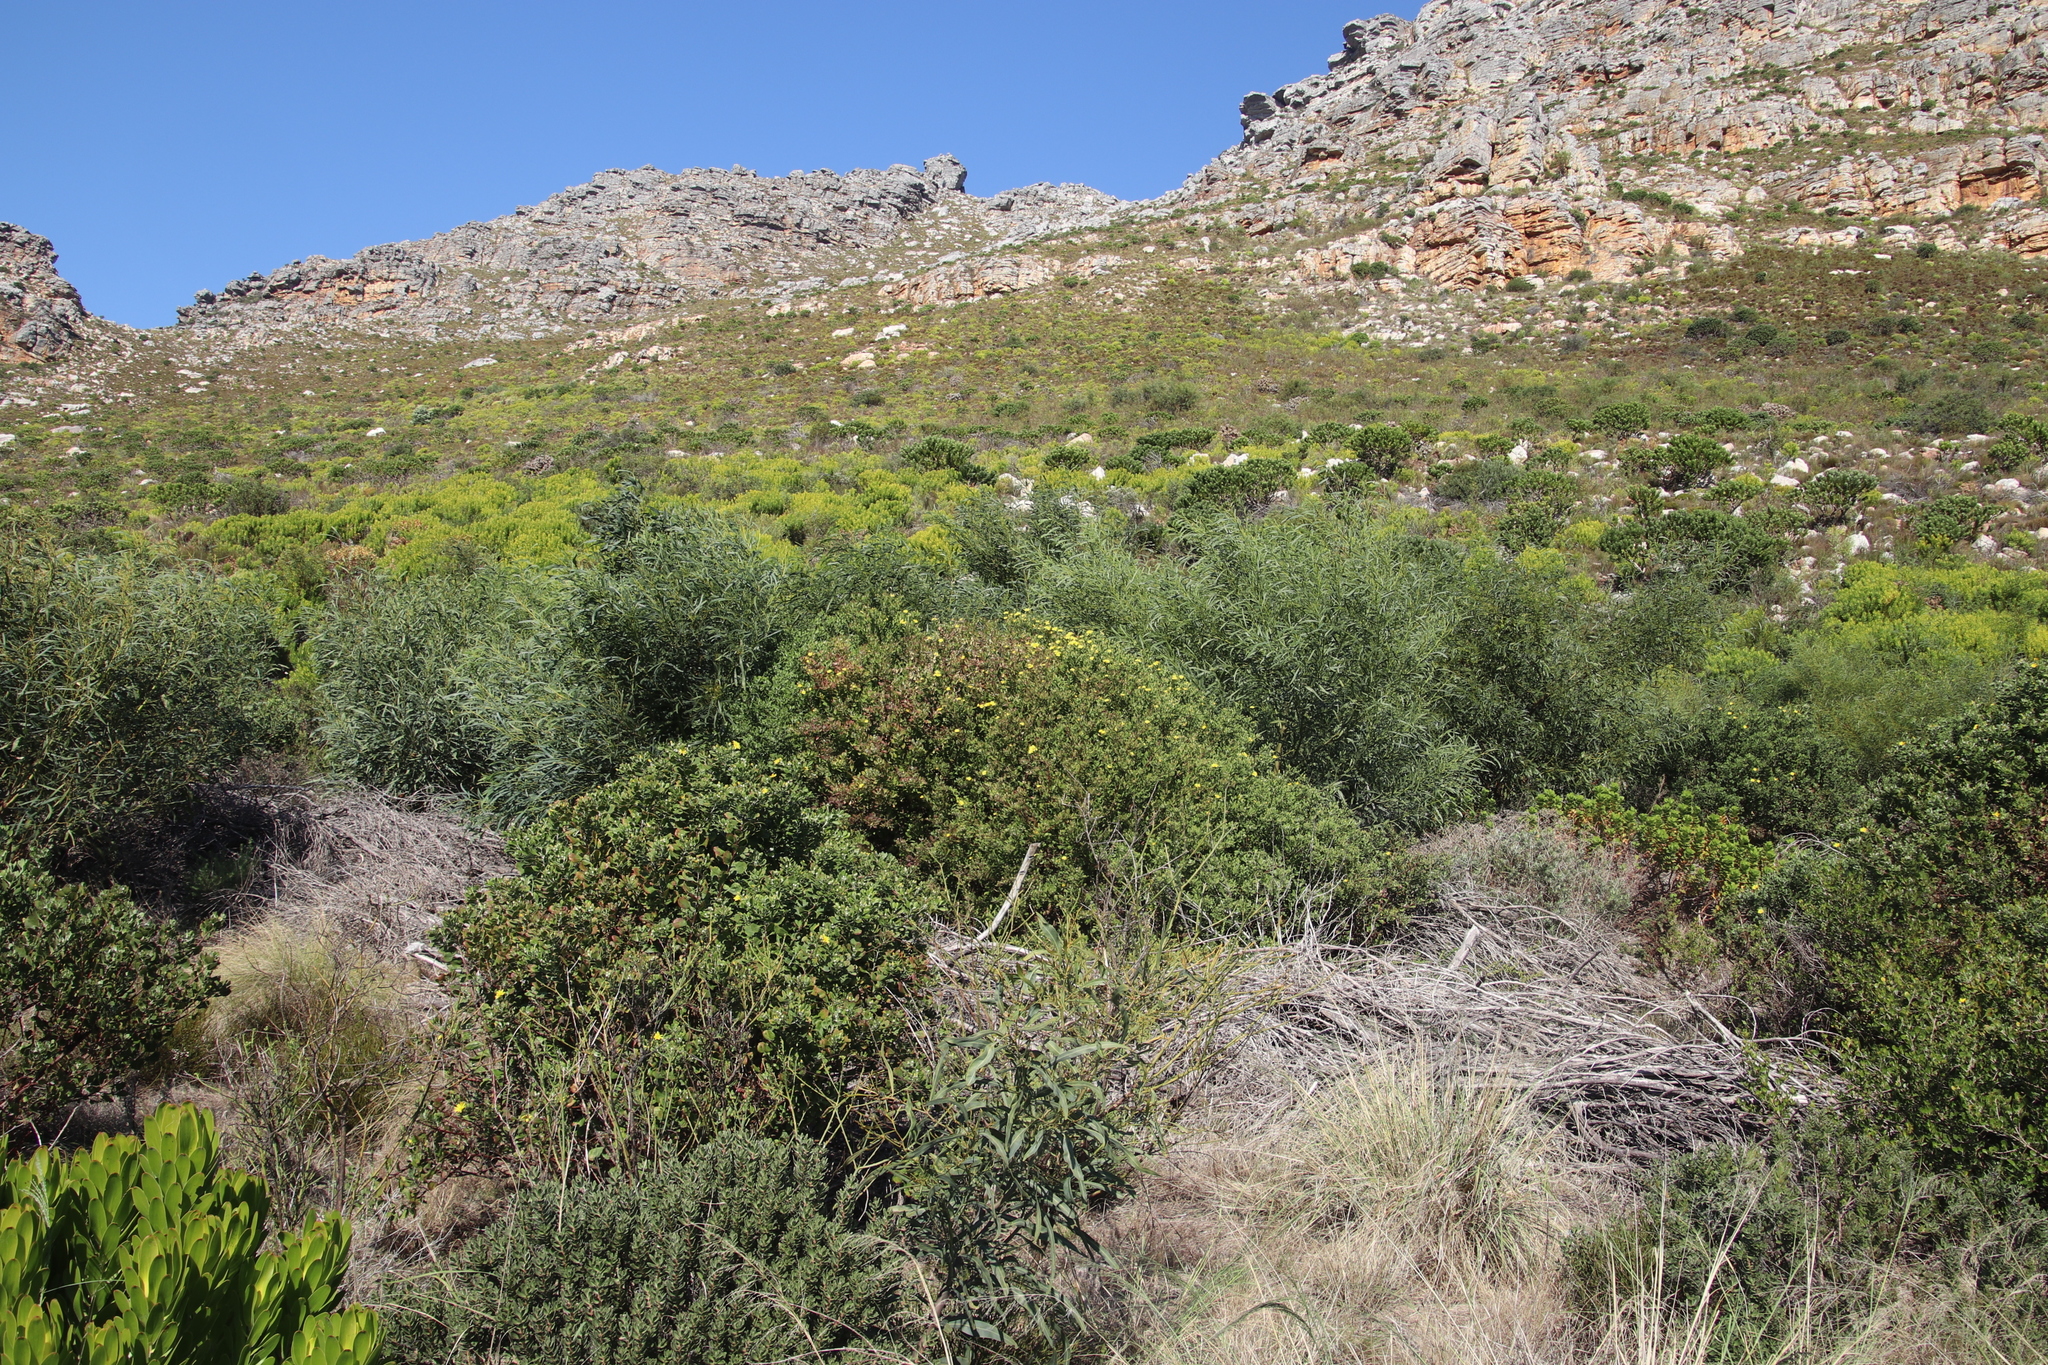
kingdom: Plantae
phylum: Tracheophyta
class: Magnoliopsida
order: Asterales
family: Asteraceae
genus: Osteospermum
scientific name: Osteospermum moniliferum
